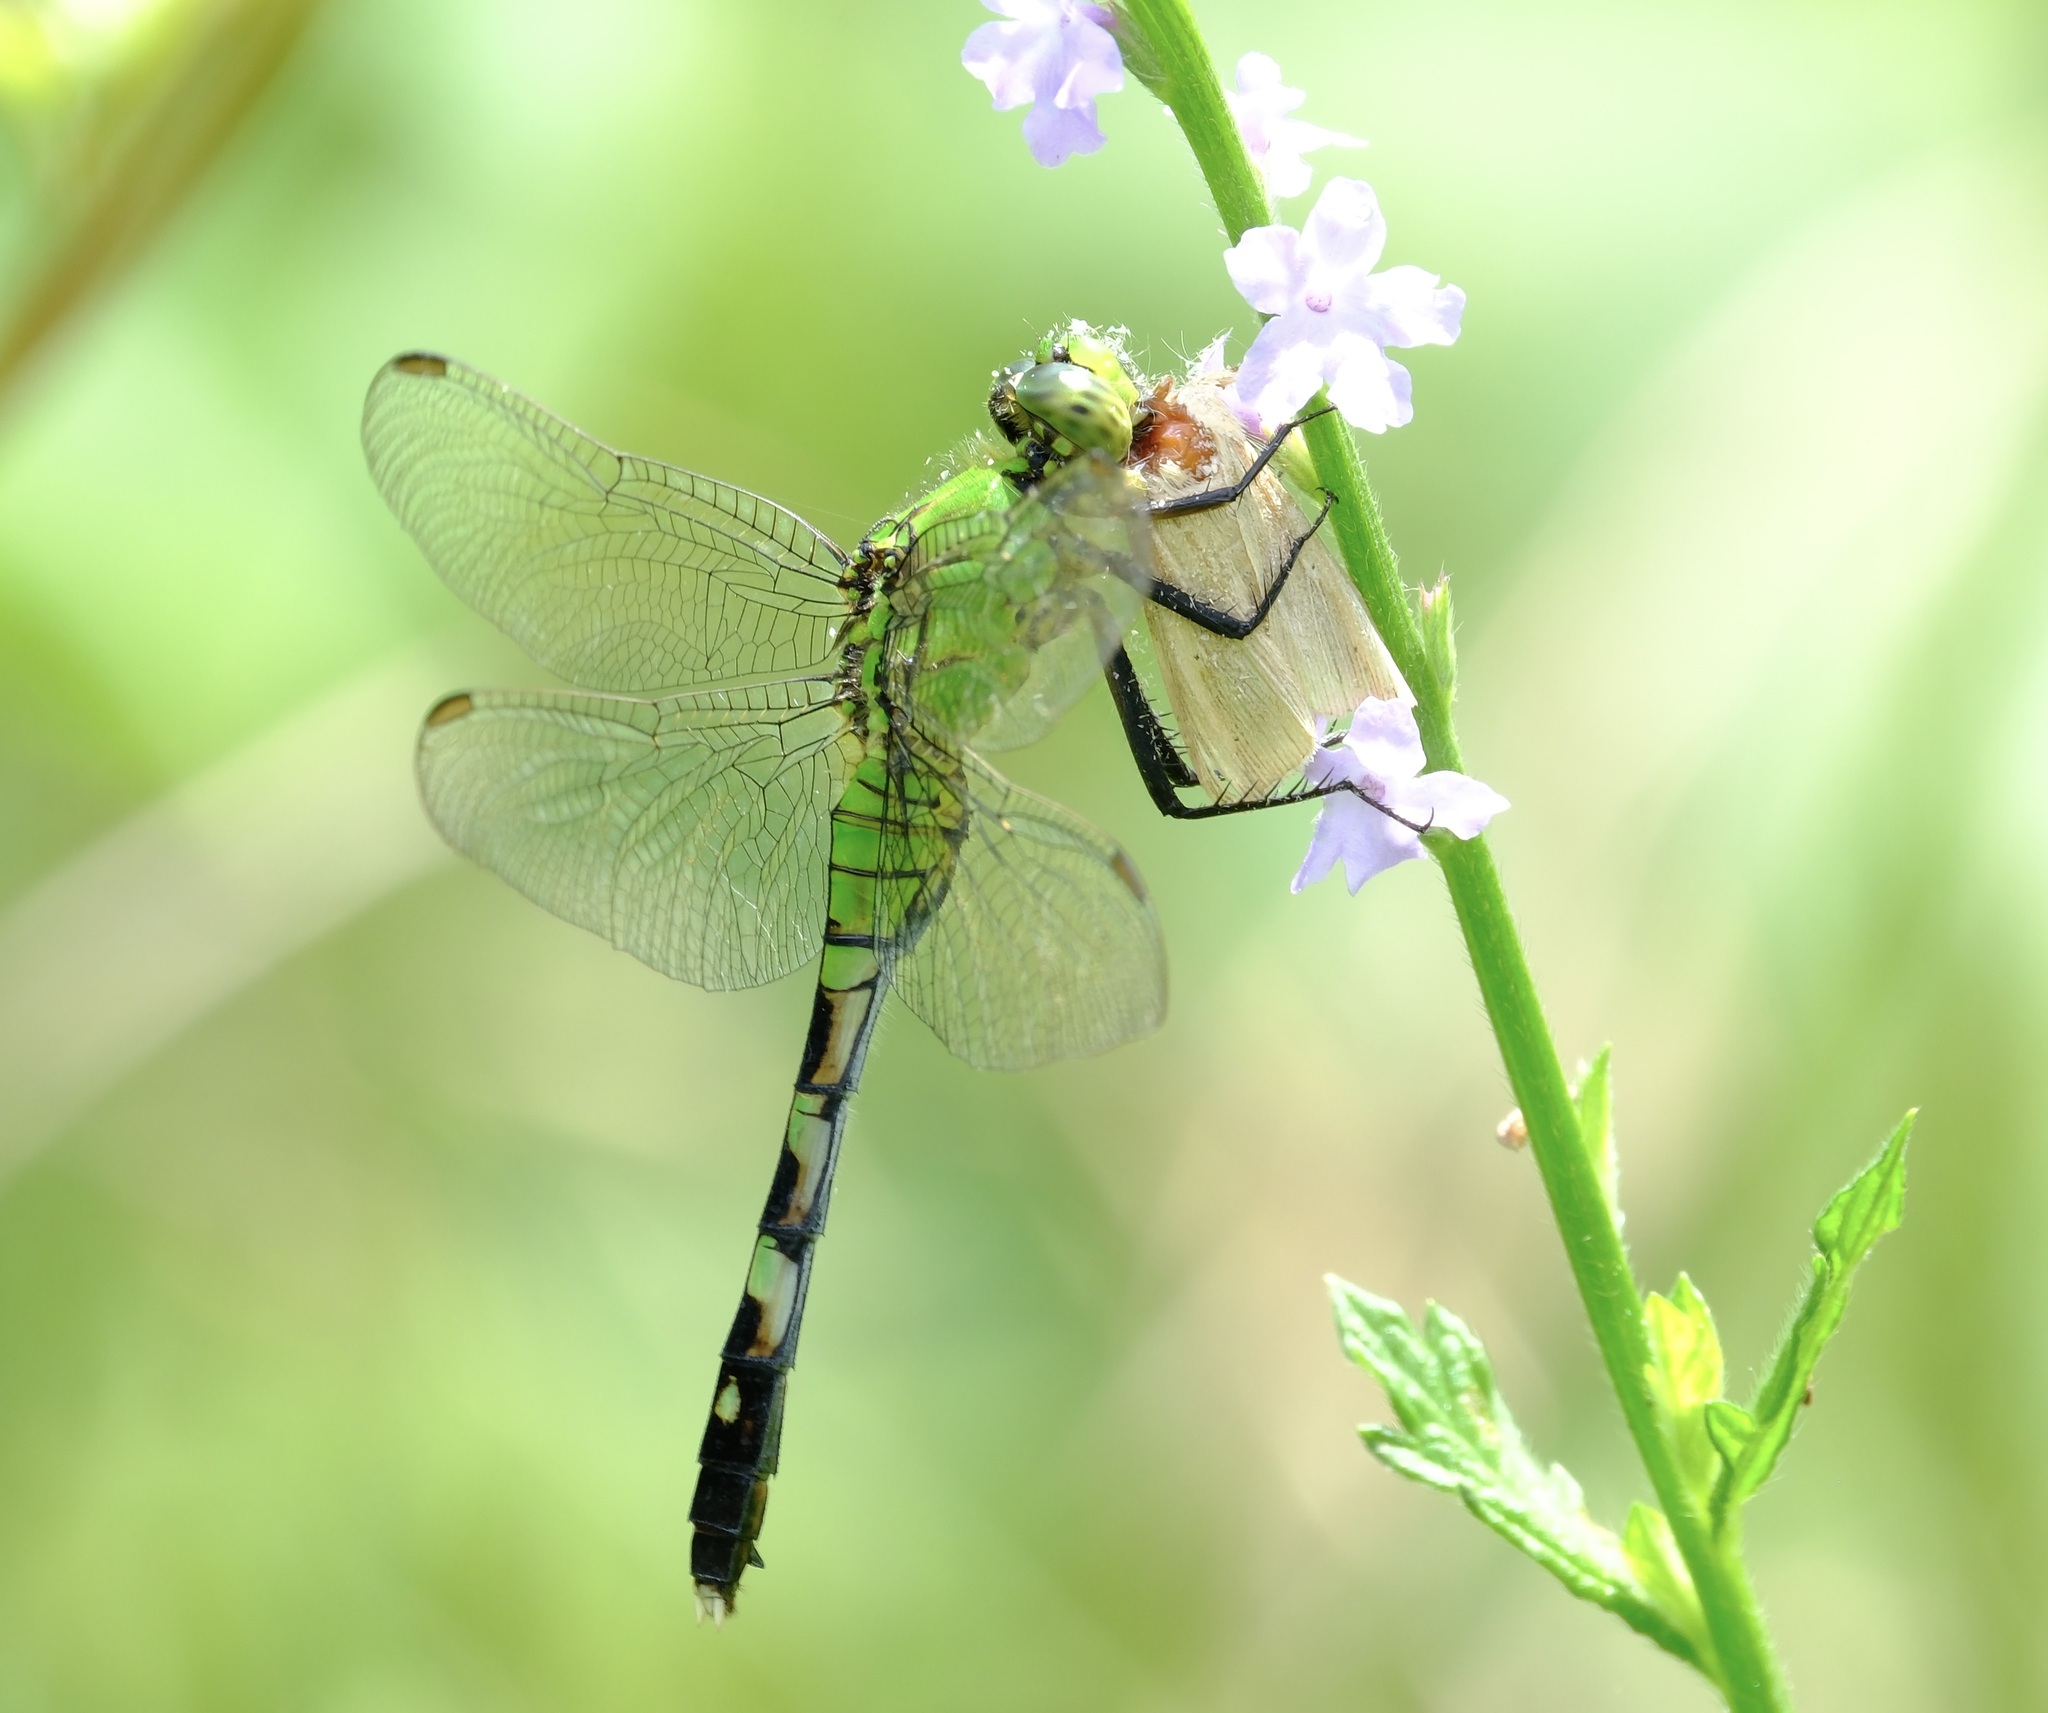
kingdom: Animalia
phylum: Arthropoda
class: Insecta
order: Odonata
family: Libellulidae
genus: Erythemis
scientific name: Erythemis simplicicollis
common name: Eastern pondhawk
